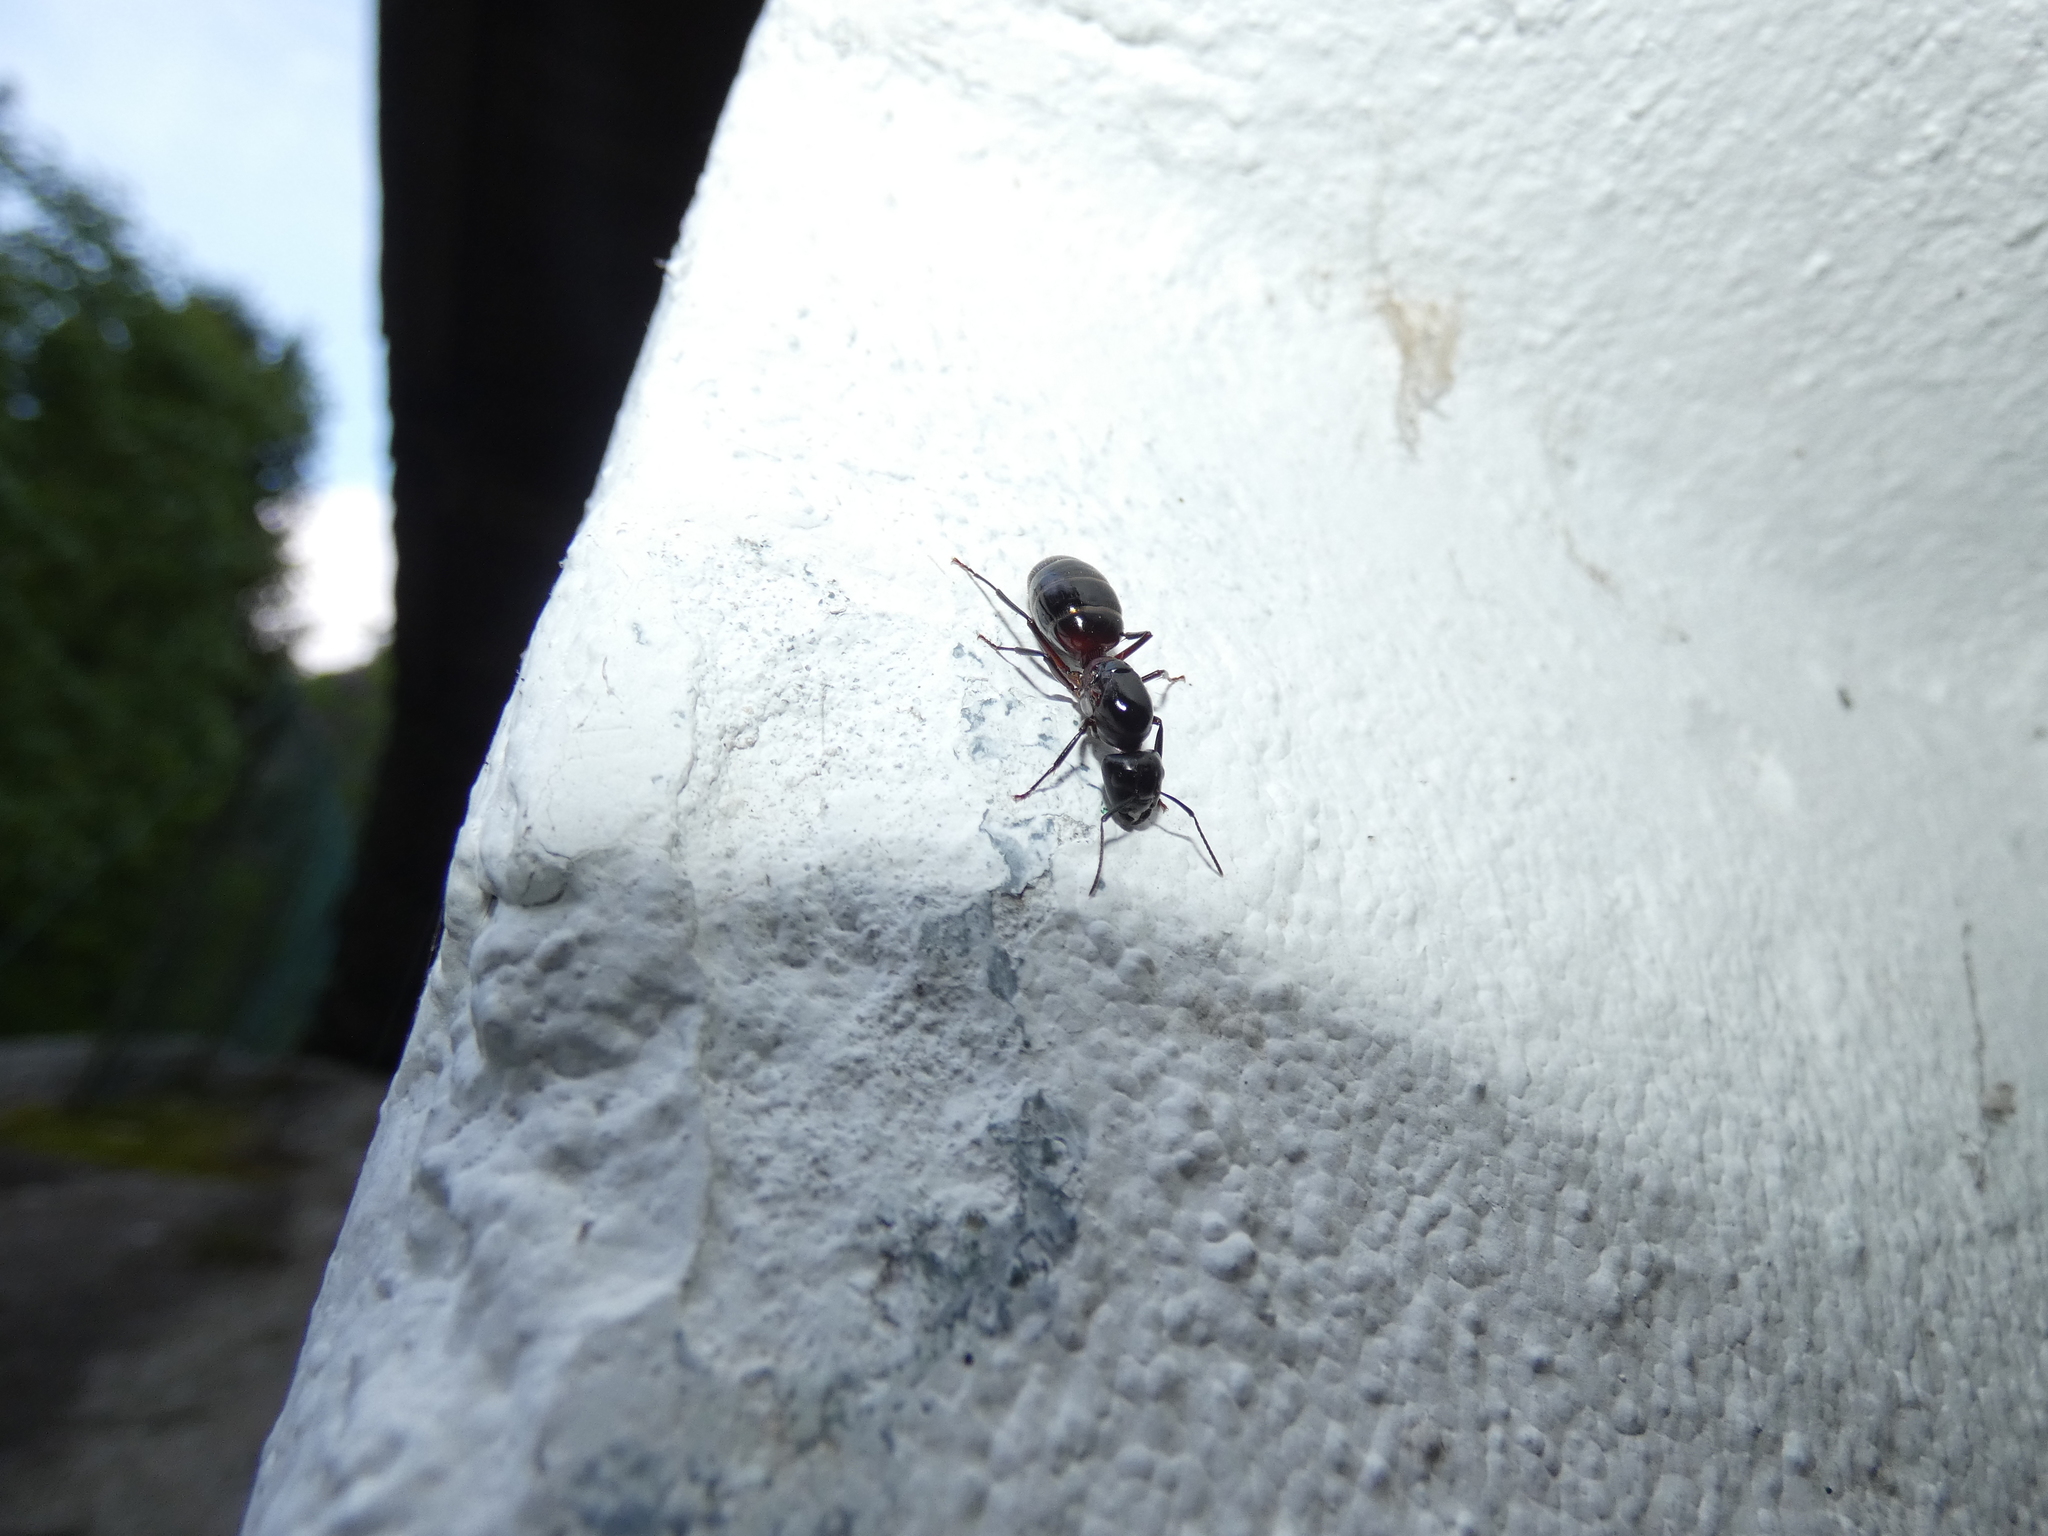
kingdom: Animalia
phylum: Arthropoda
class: Insecta
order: Hymenoptera
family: Formicidae
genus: Camponotus
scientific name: Camponotus ligniperdus
